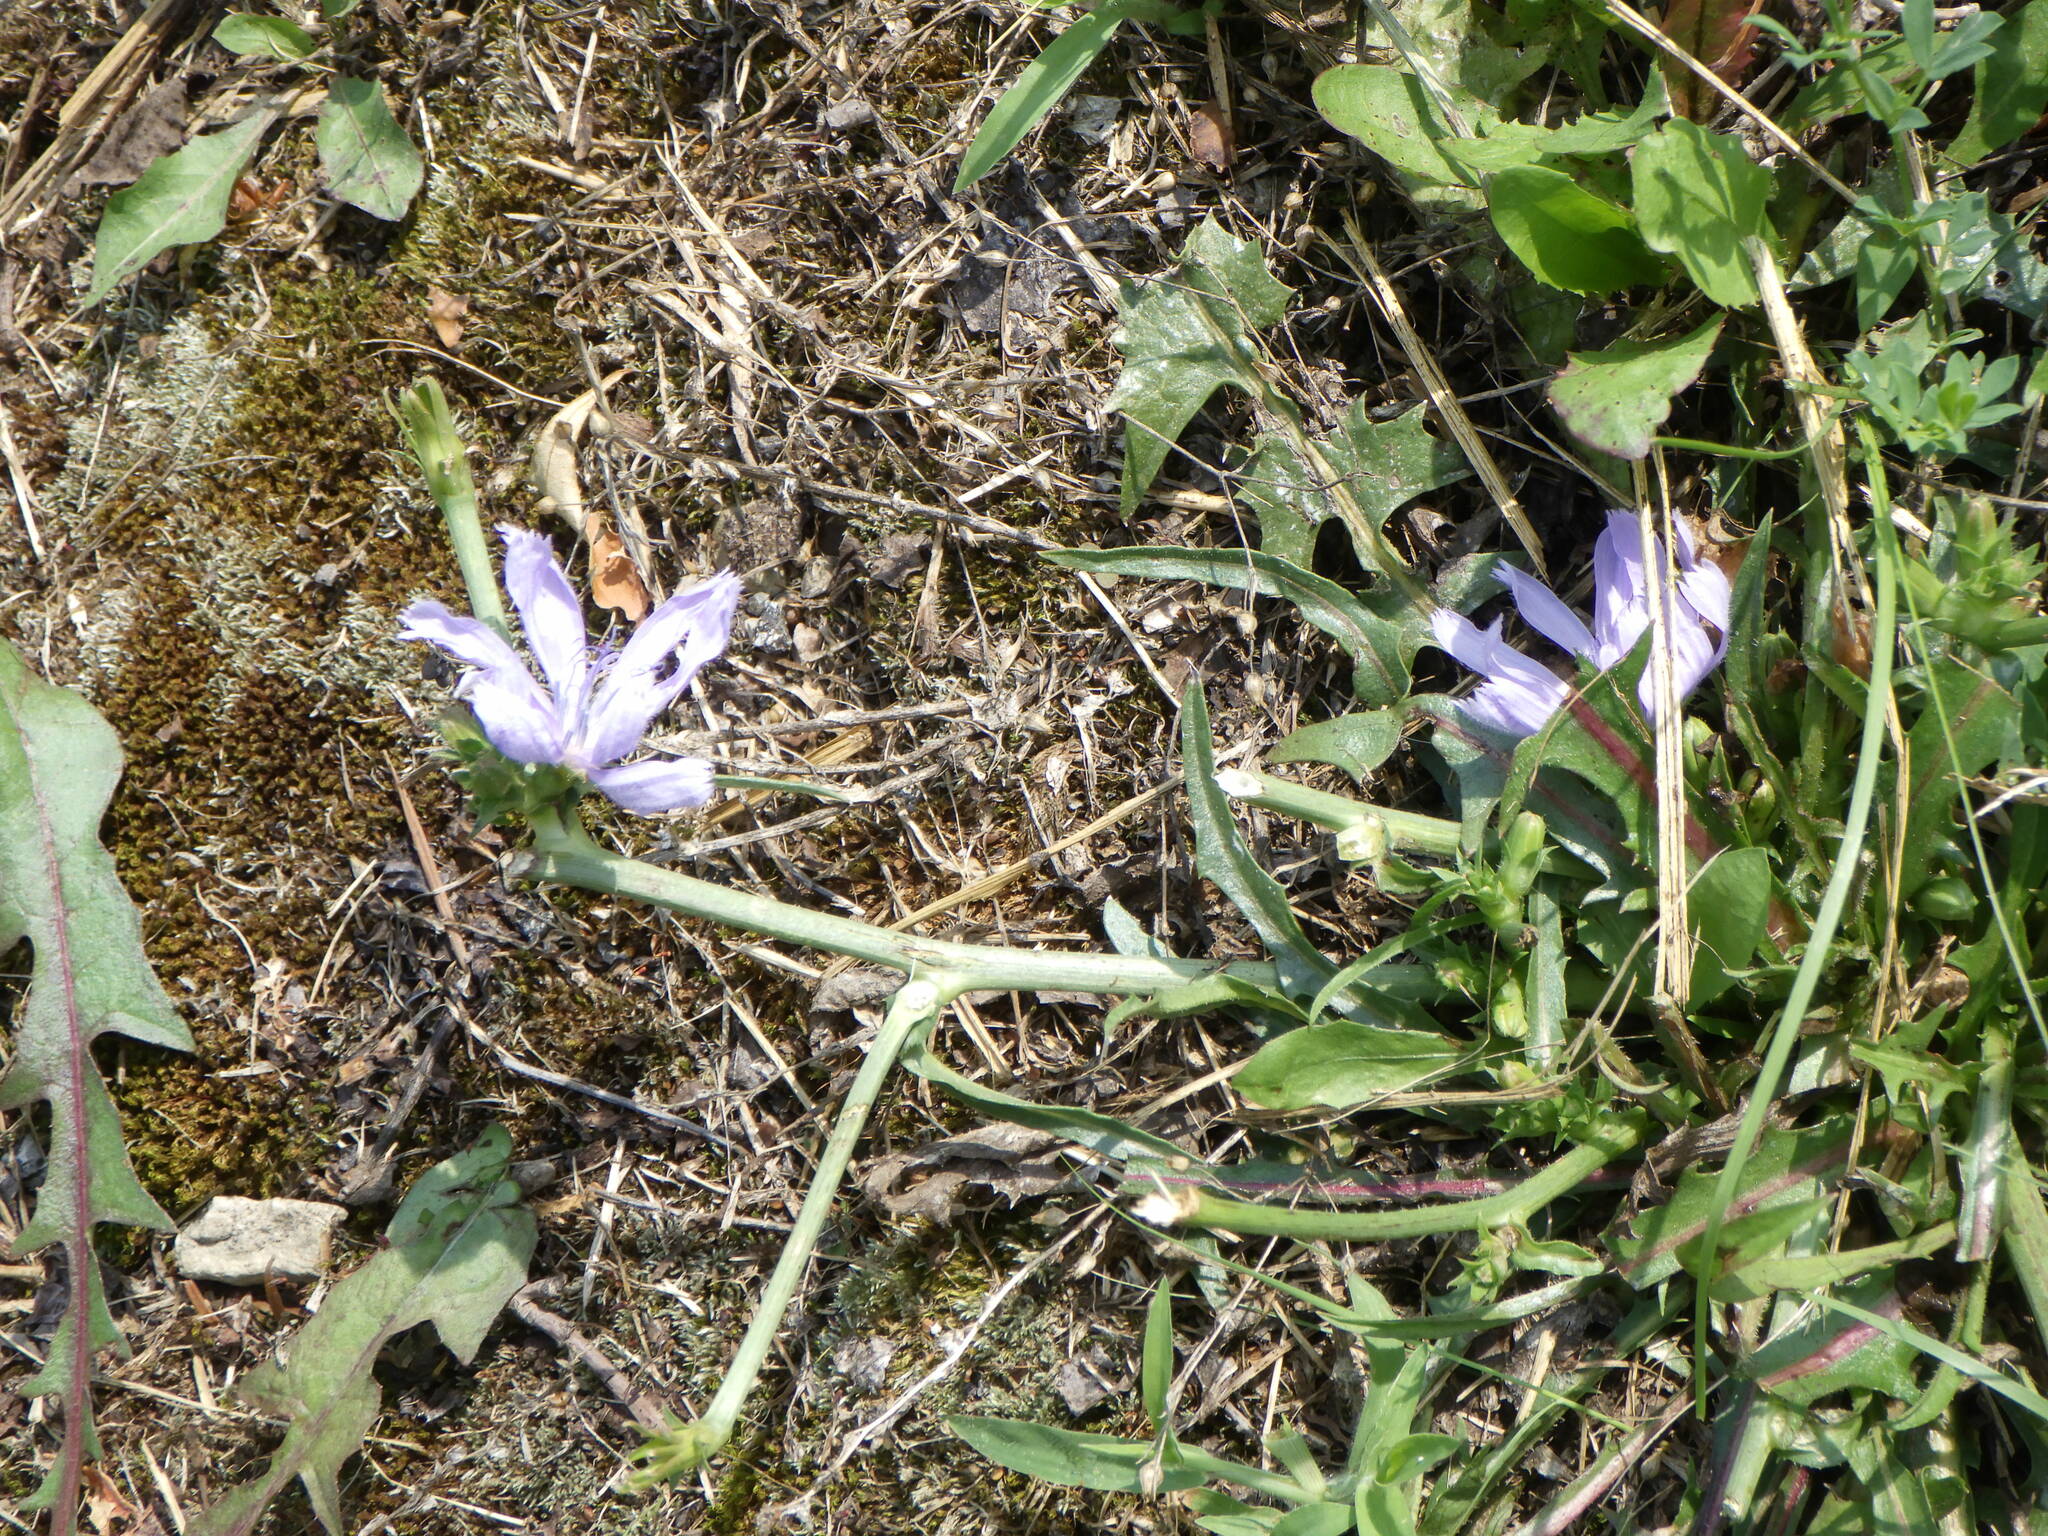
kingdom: Plantae
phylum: Tracheophyta
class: Magnoliopsida
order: Asterales
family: Asteraceae
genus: Cichorium
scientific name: Cichorium intybus
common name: Chicory
